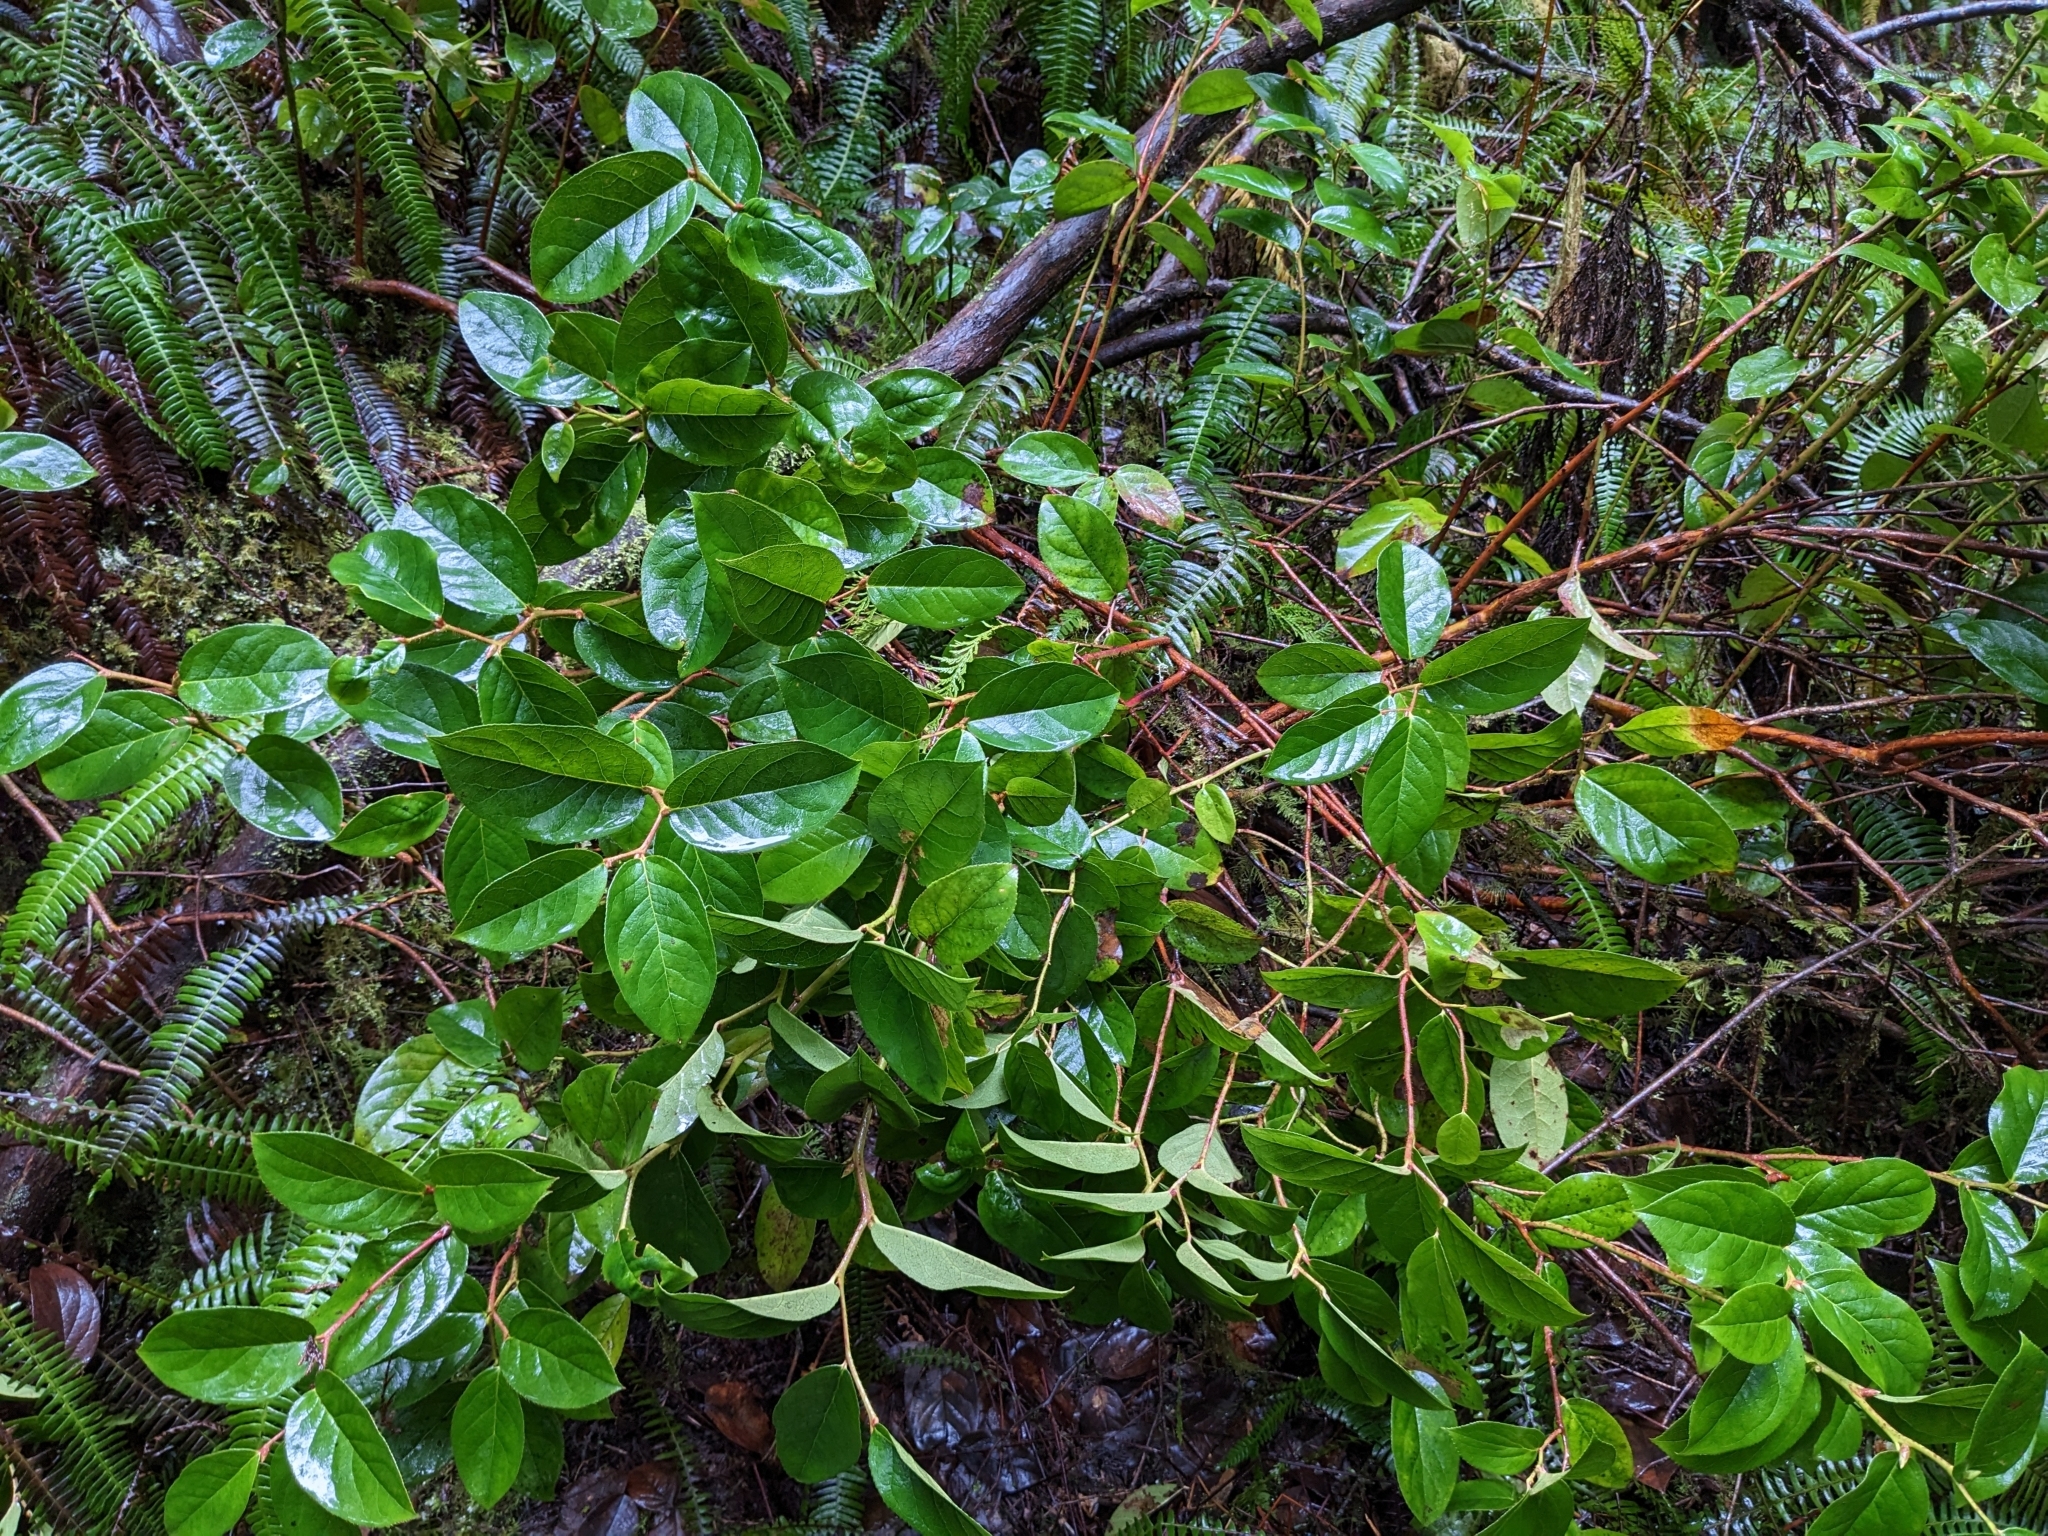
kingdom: Plantae
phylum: Tracheophyta
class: Magnoliopsida
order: Ericales
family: Ericaceae
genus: Gaultheria
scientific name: Gaultheria shallon
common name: Shallon
